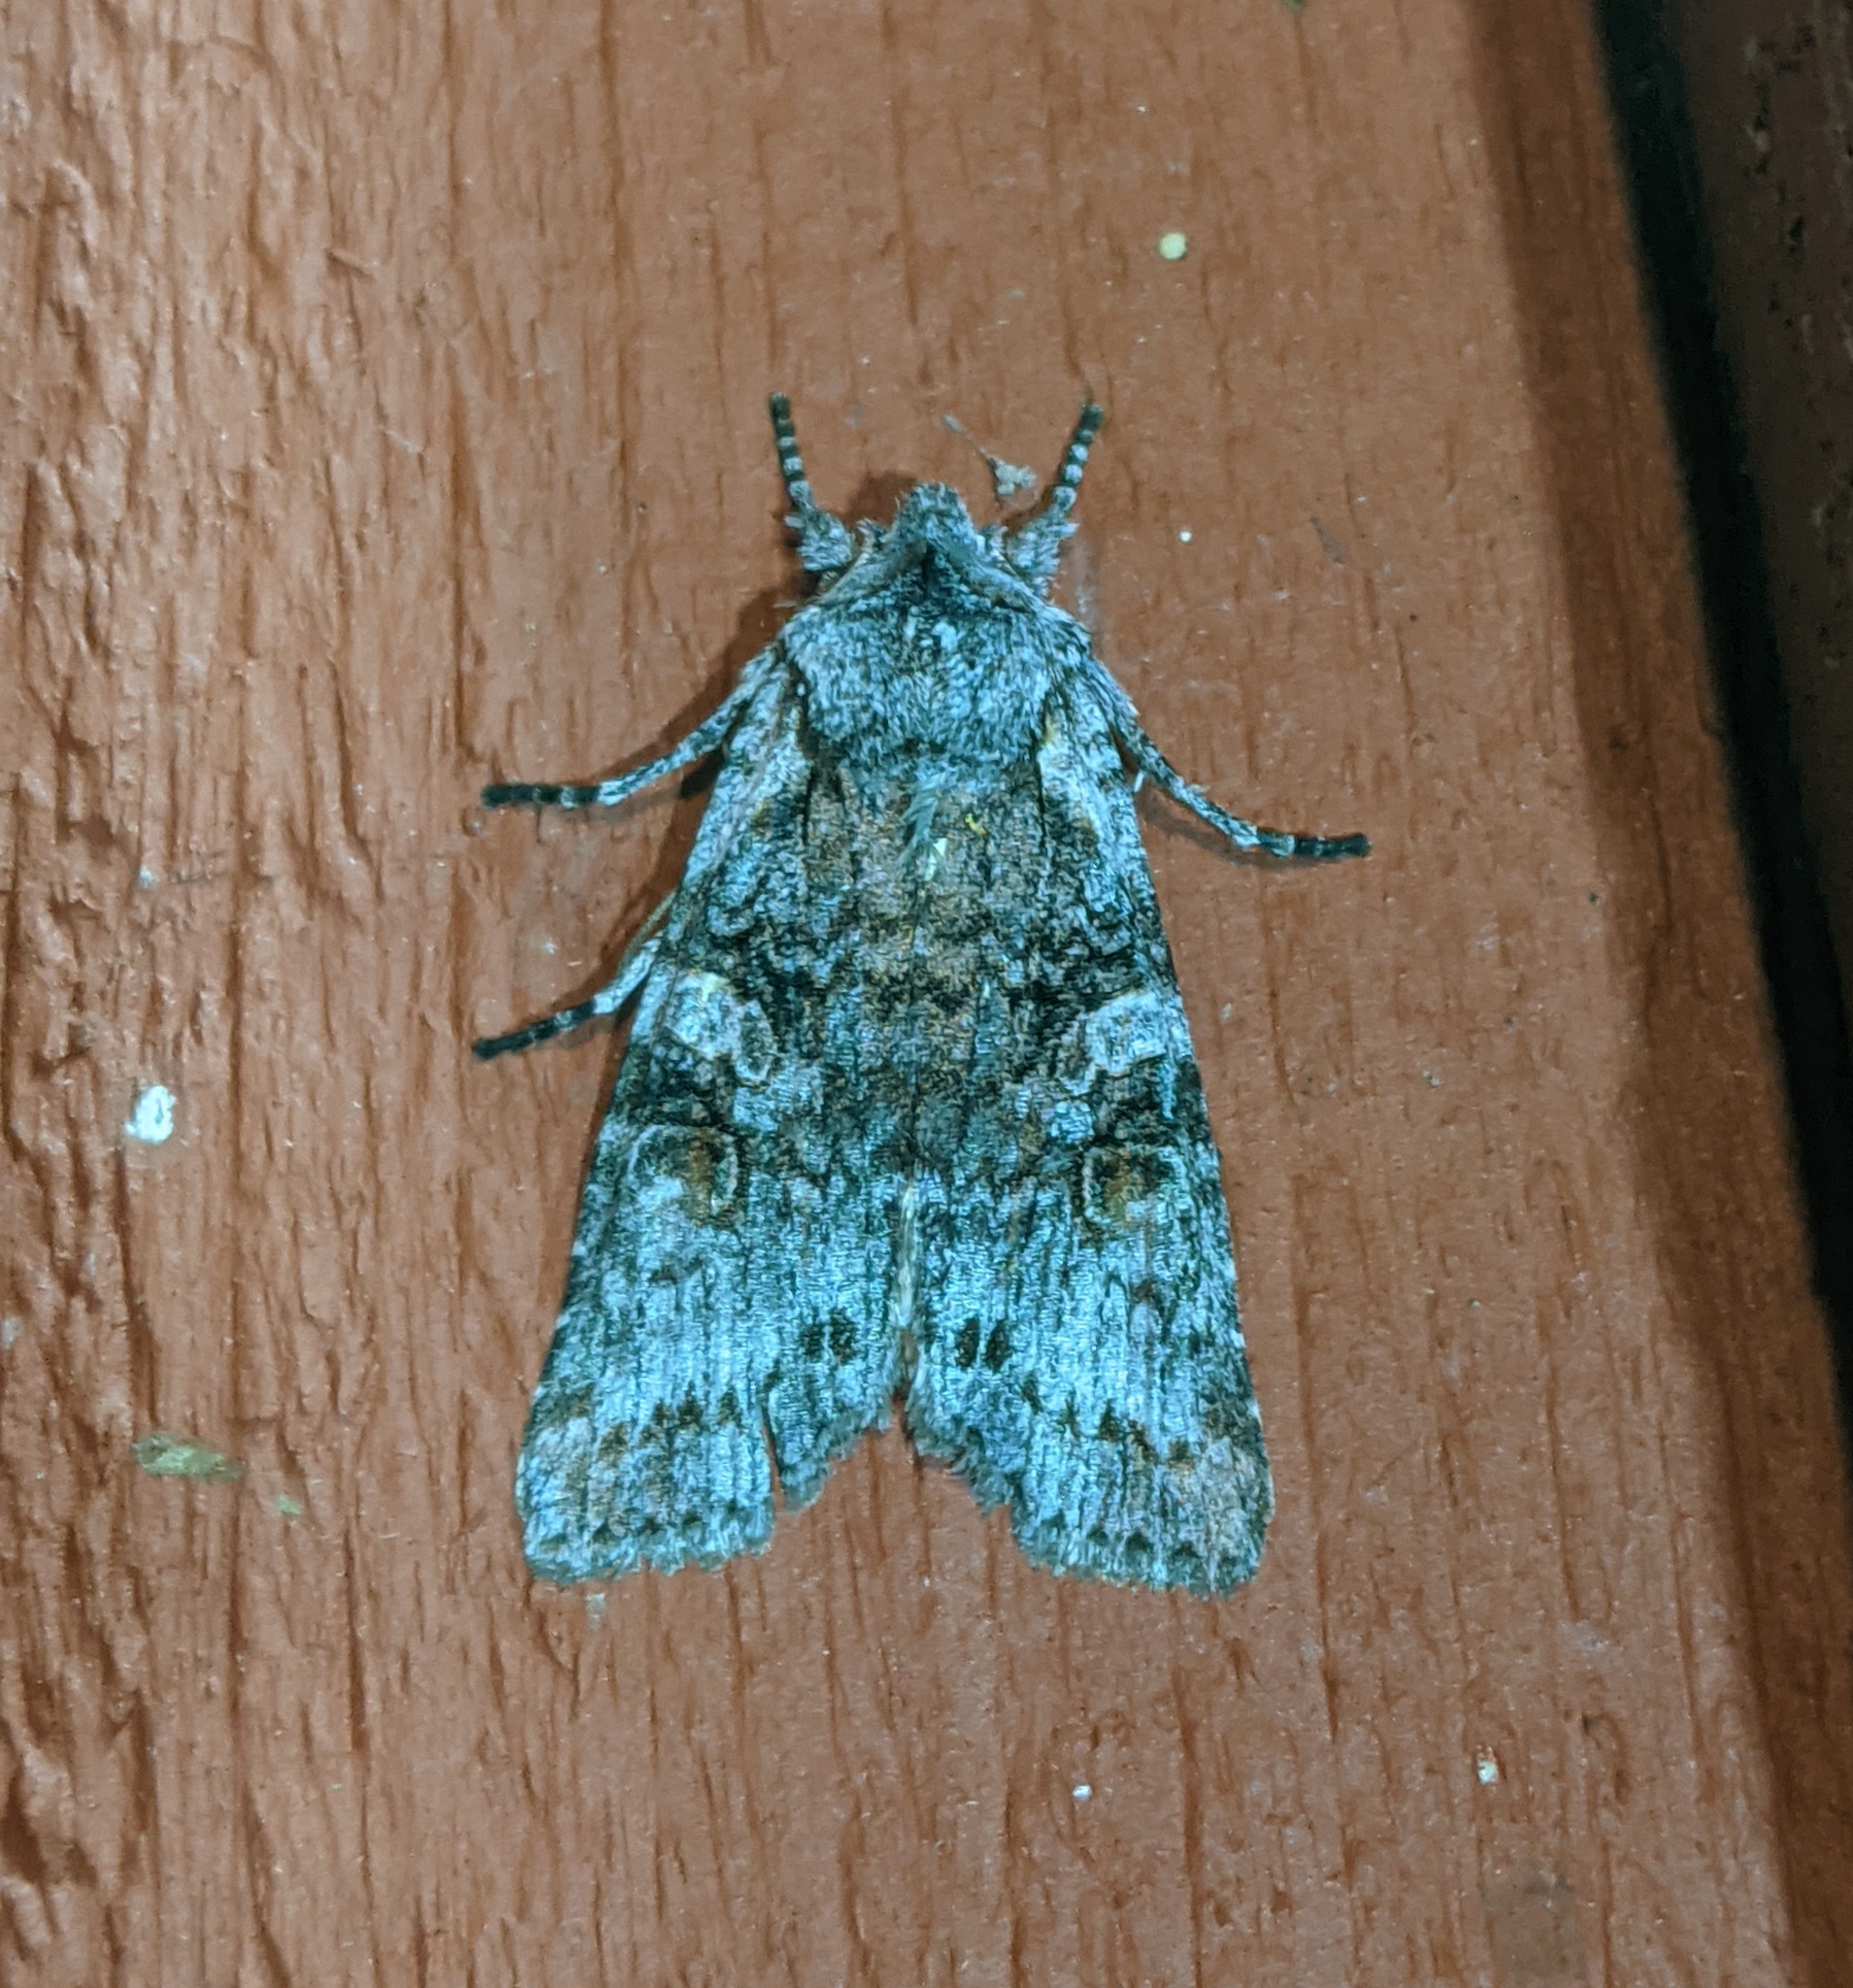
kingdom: Animalia
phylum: Arthropoda
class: Insecta
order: Lepidoptera
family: Noctuidae
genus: Lithophane
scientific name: Lithophane pertorrida
